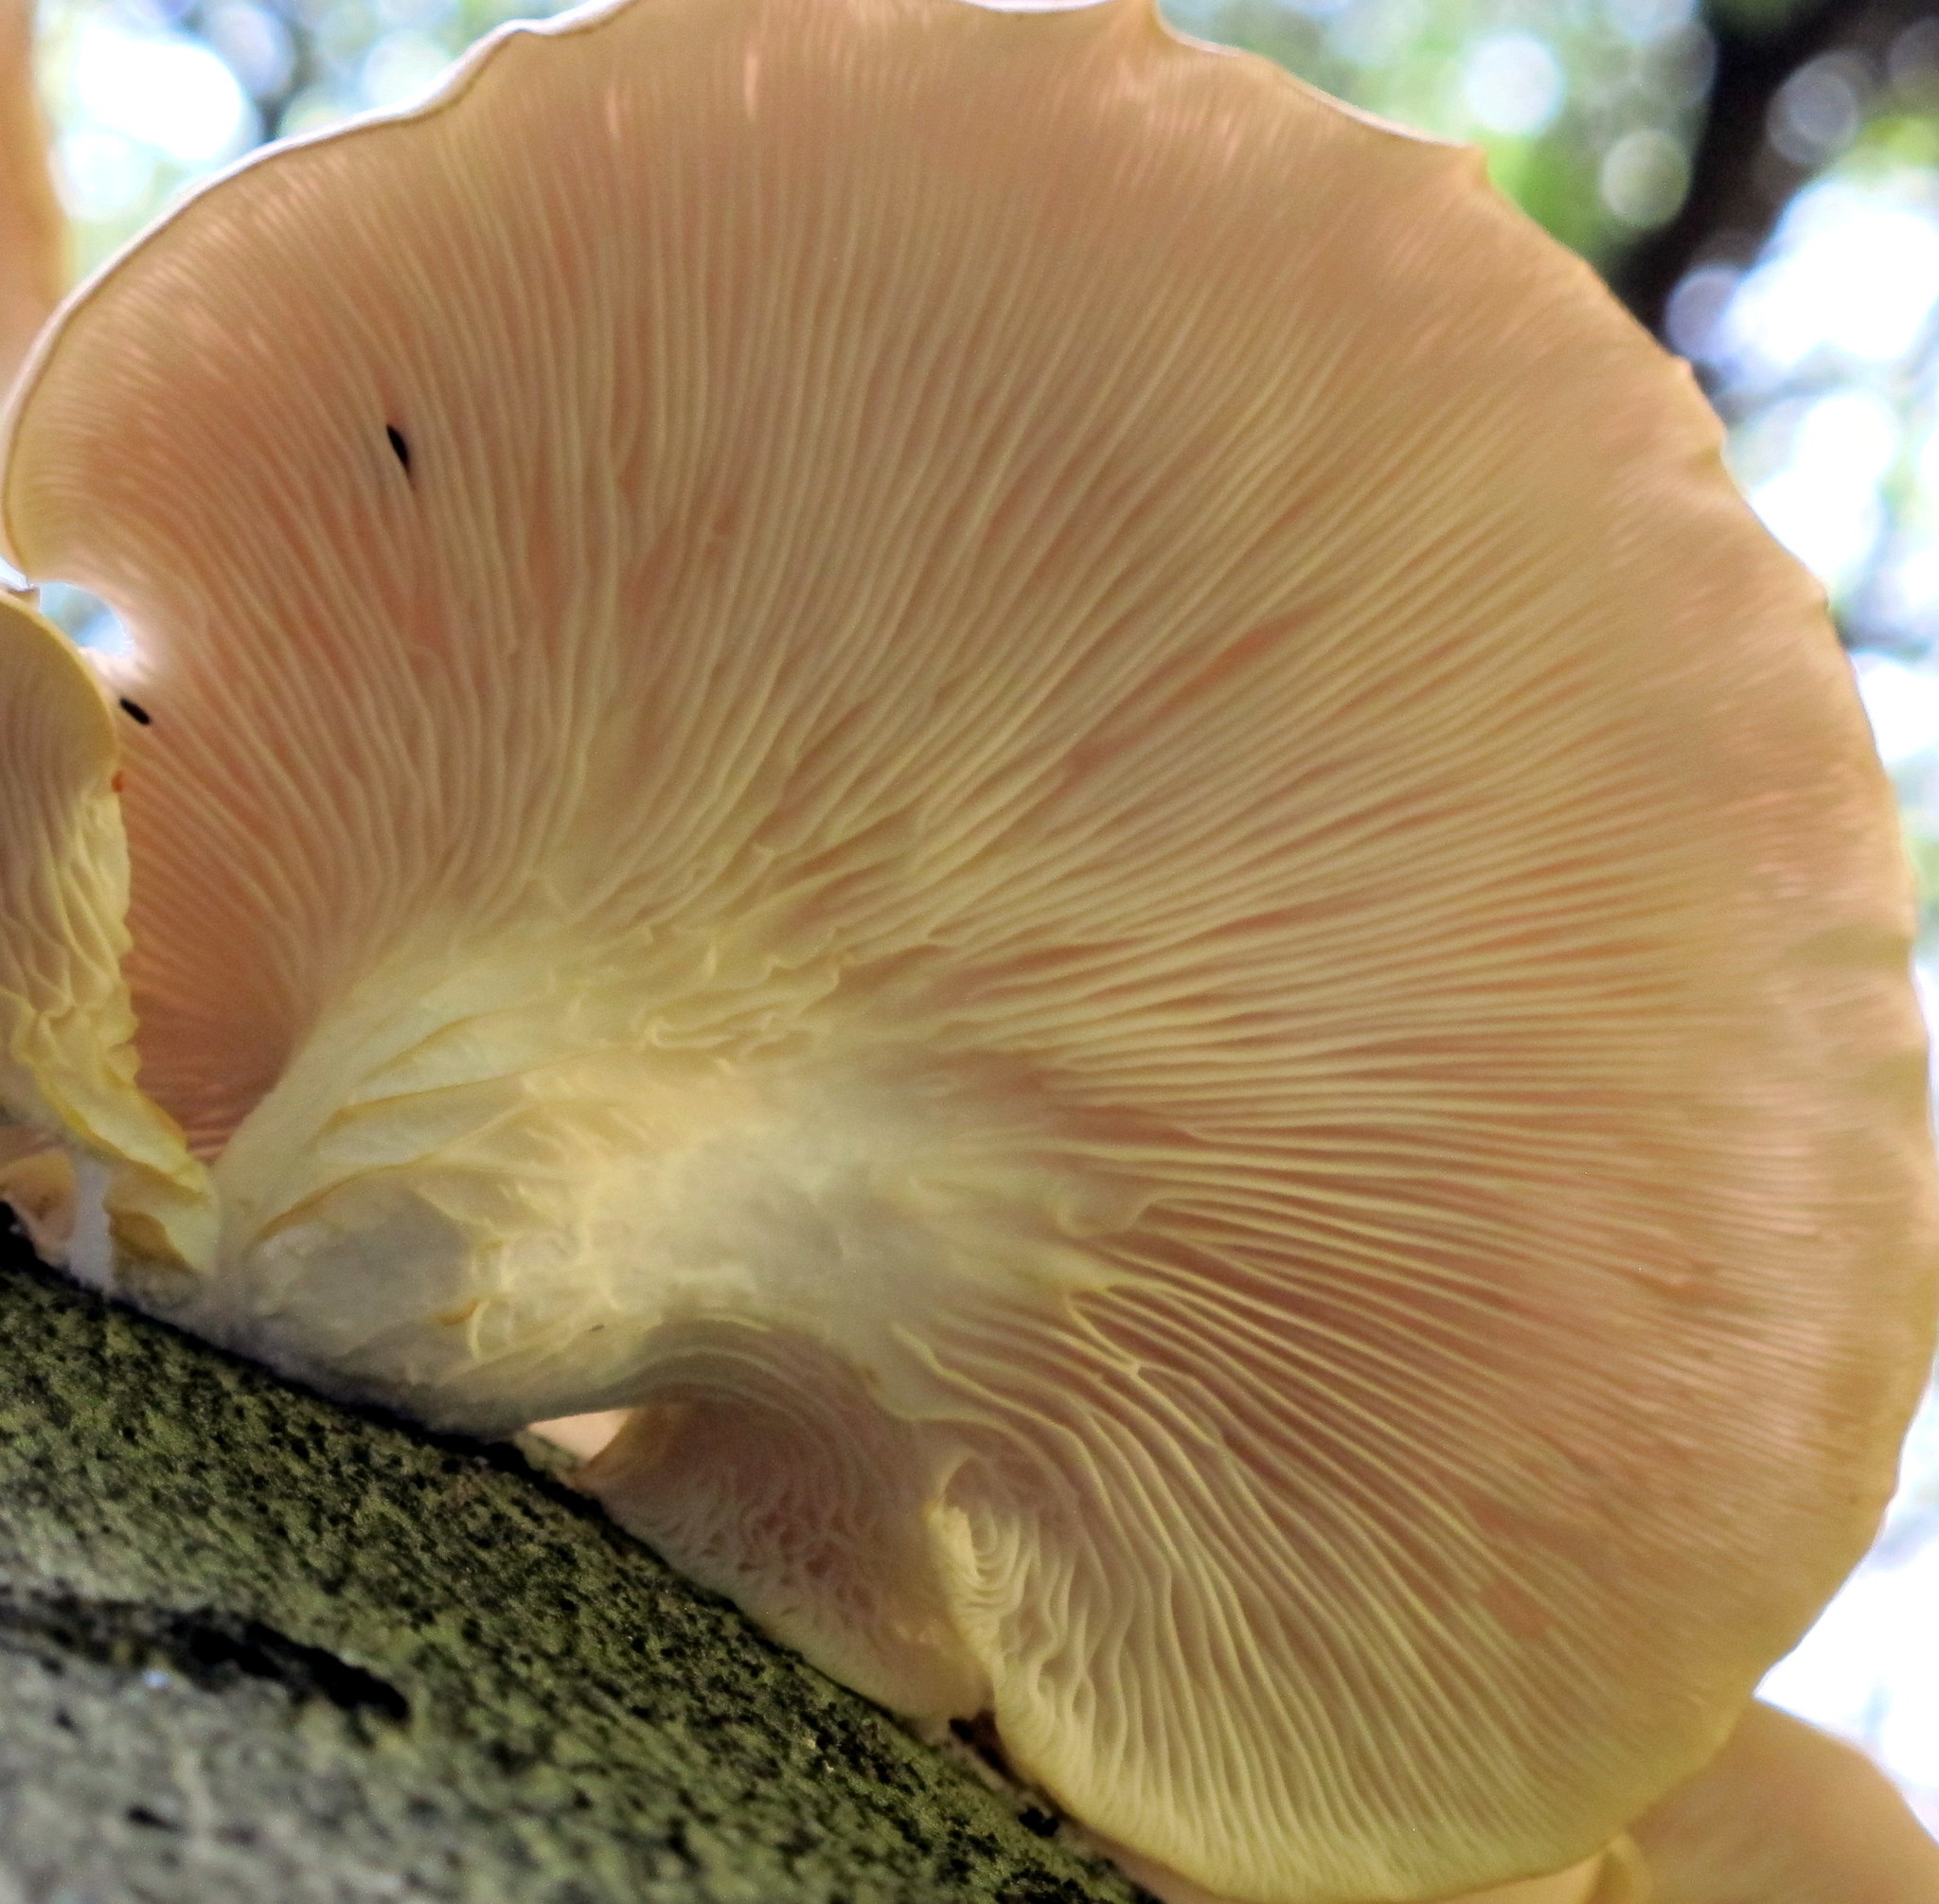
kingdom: Fungi
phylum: Basidiomycota
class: Agaricomycetes
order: Agaricales
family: Pleurotaceae
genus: Pleurotus
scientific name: Pleurotus pulmonarius
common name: Pale oyster
